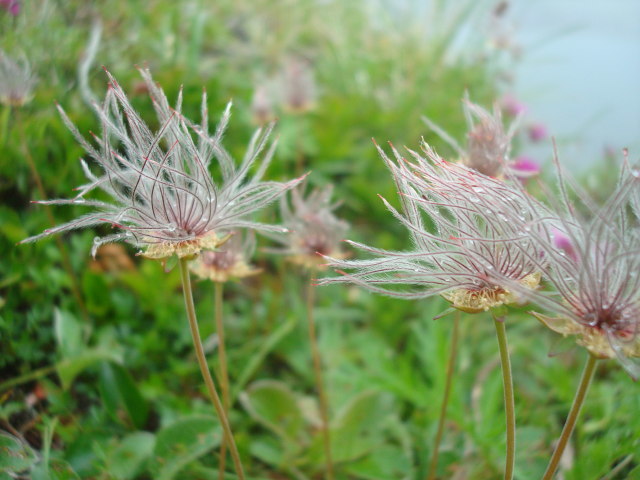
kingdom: Plantae
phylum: Tracheophyta
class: Magnoliopsida
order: Rosales
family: Rosaceae
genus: Geum
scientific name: Geum pentapetalum
